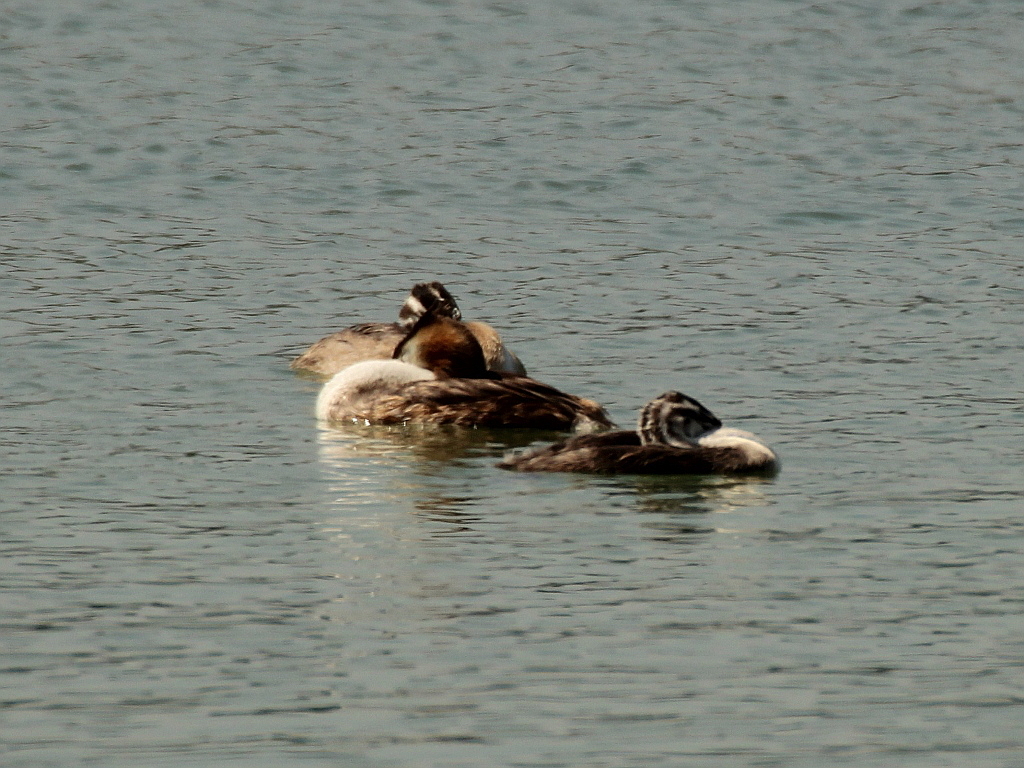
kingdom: Animalia
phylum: Chordata
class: Aves
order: Podicipediformes
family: Podicipedidae
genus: Podiceps
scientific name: Podiceps cristatus
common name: Great crested grebe
